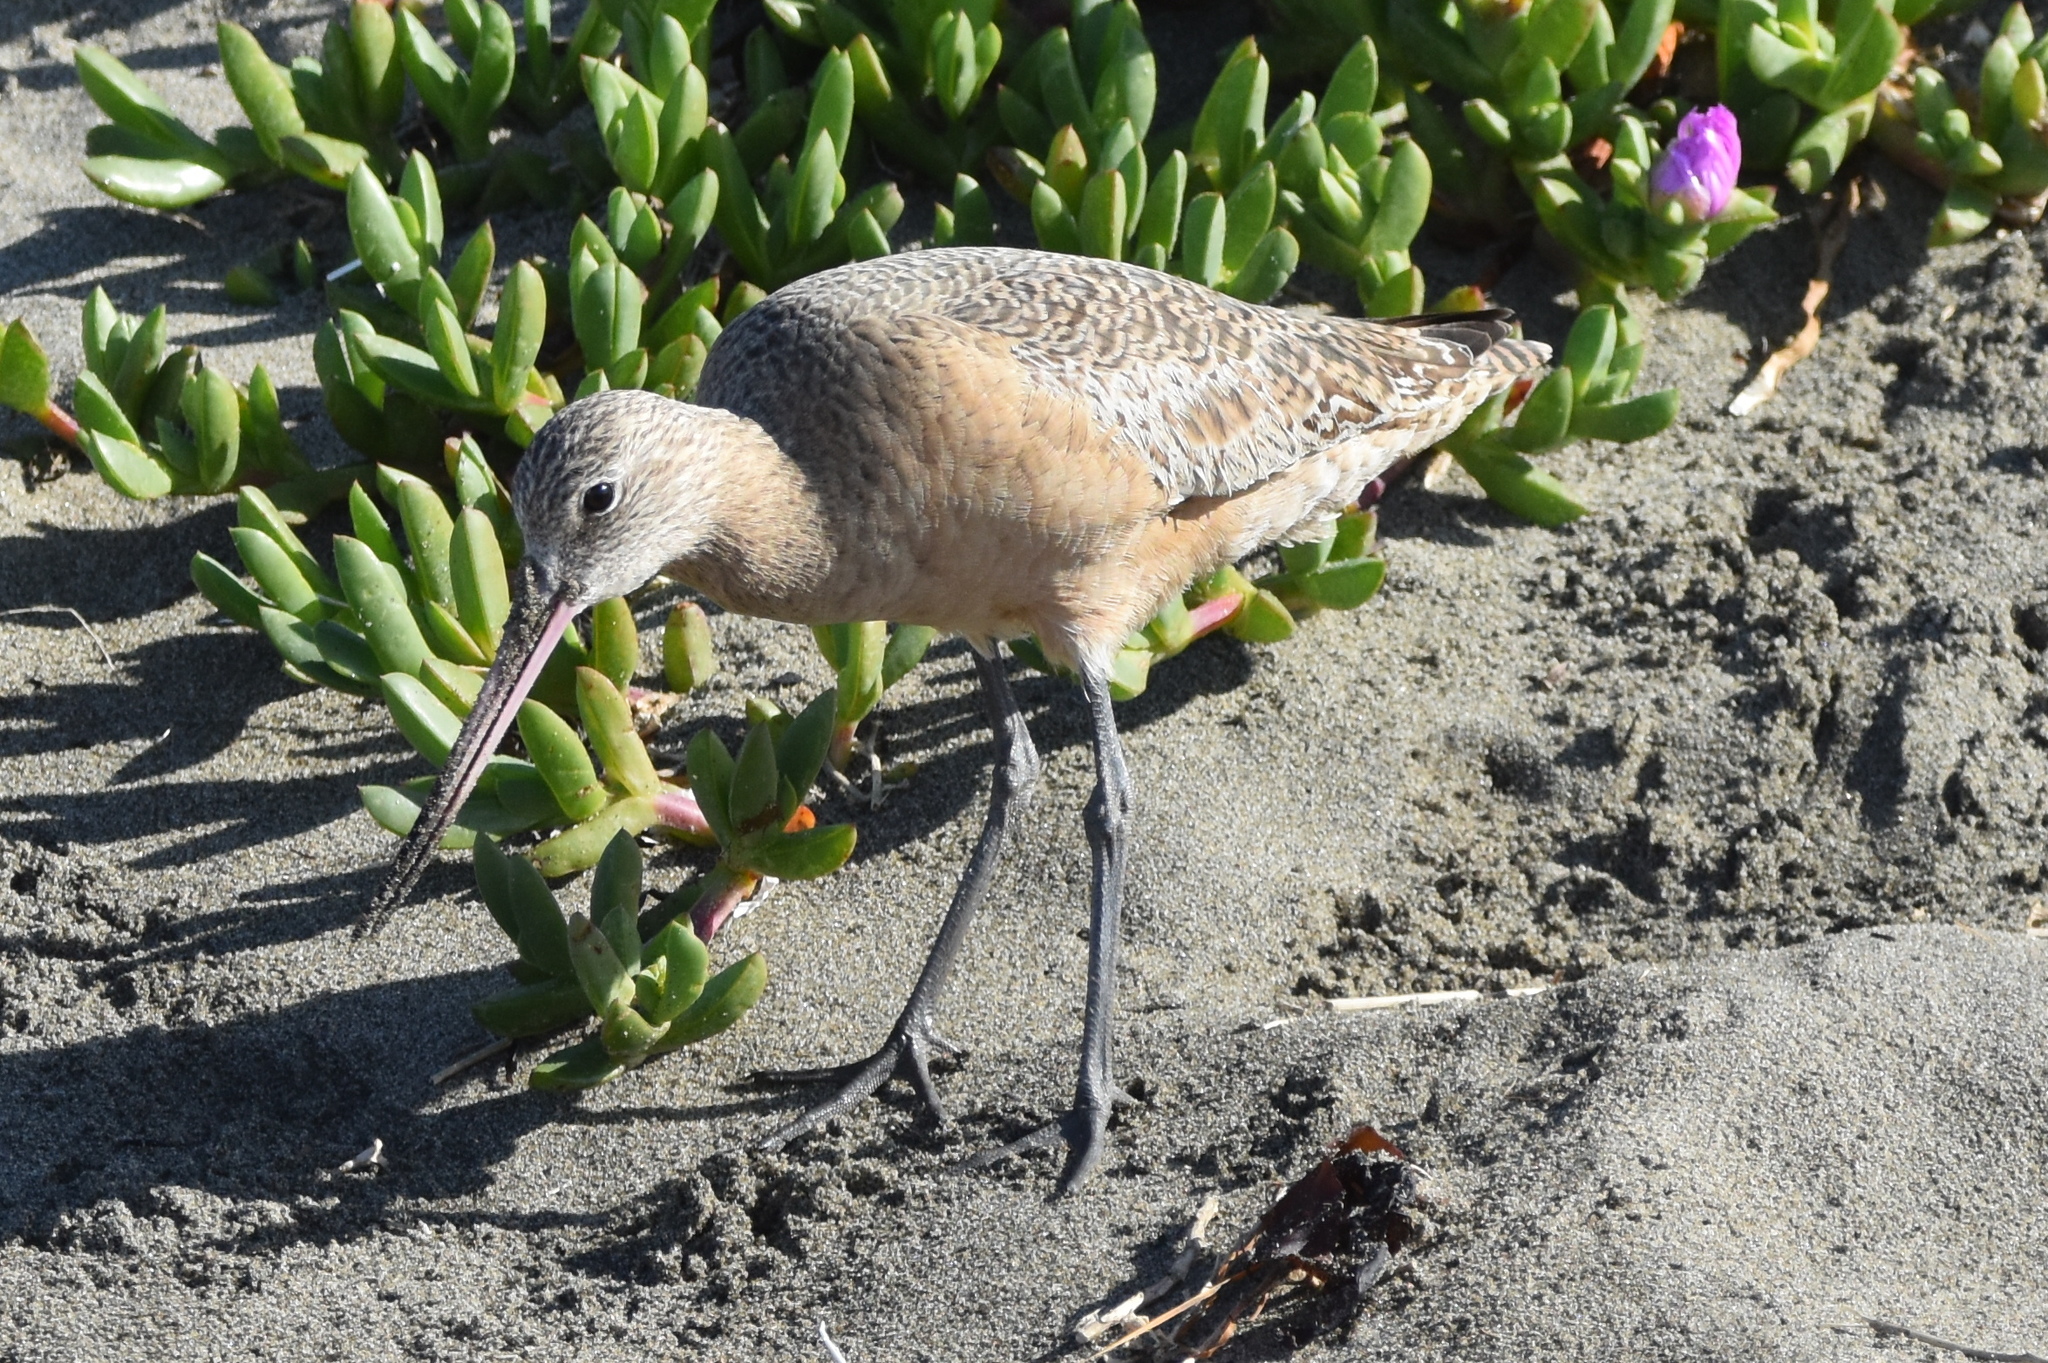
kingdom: Animalia
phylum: Chordata
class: Aves
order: Charadriiformes
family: Scolopacidae
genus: Limosa
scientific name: Limosa fedoa
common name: Marbled godwit
